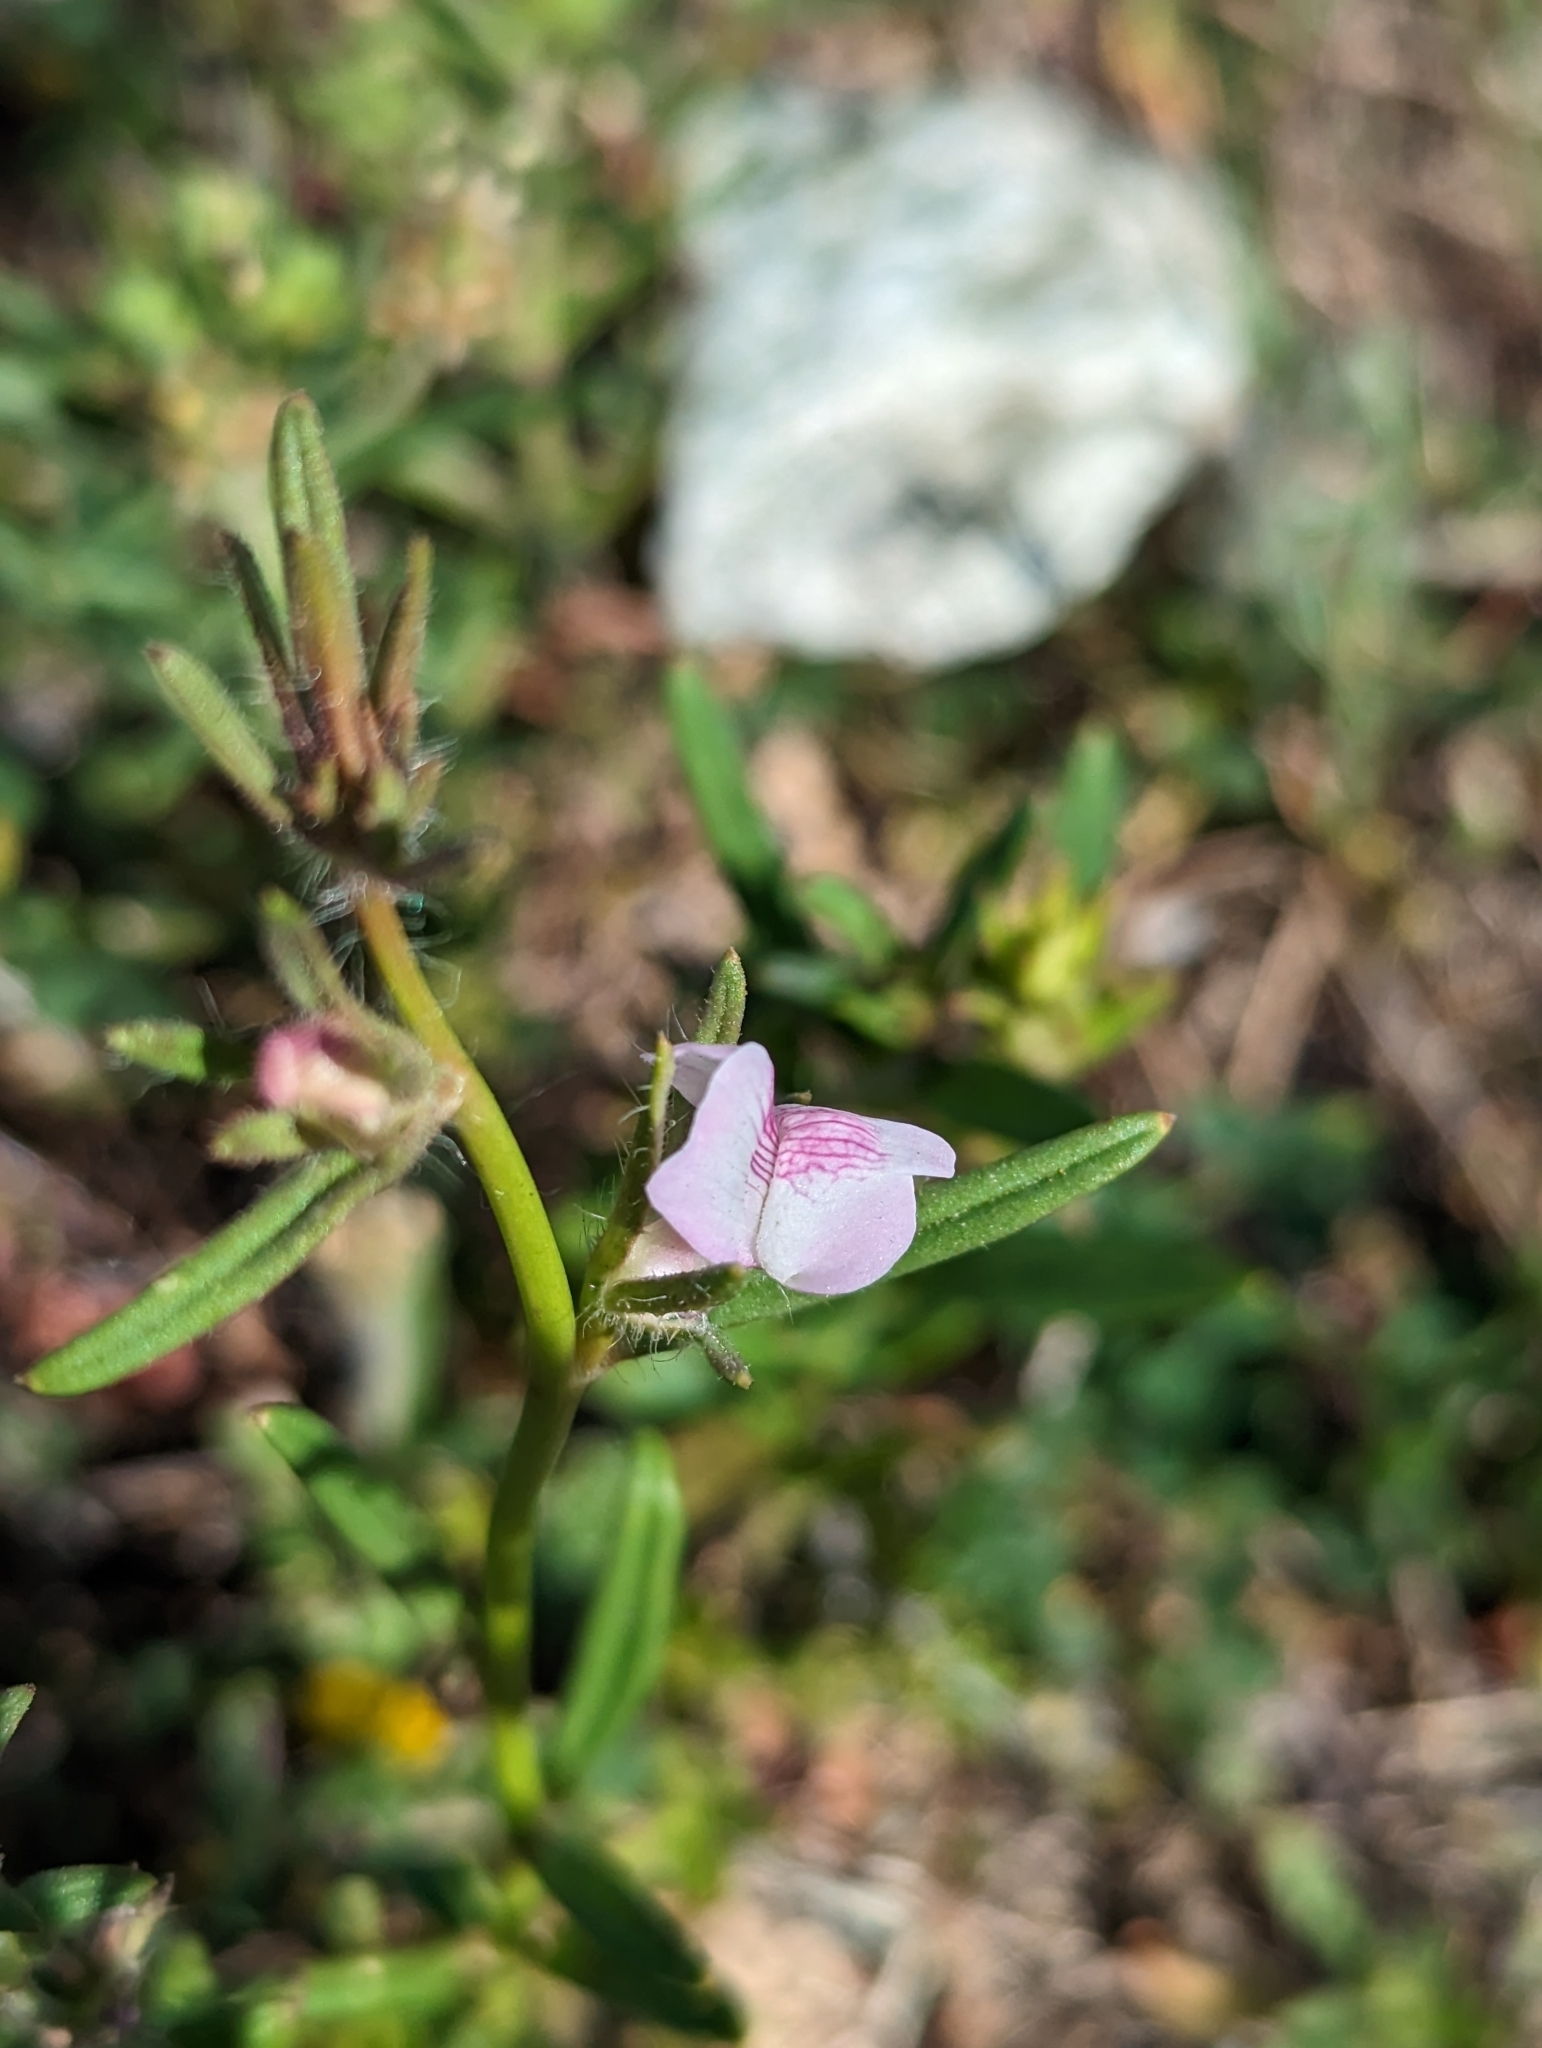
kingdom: Plantae
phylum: Tracheophyta
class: Magnoliopsida
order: Lamiales
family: Plantaginaceae
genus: Misopates
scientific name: Misopates orontium
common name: Weasel's-snout
